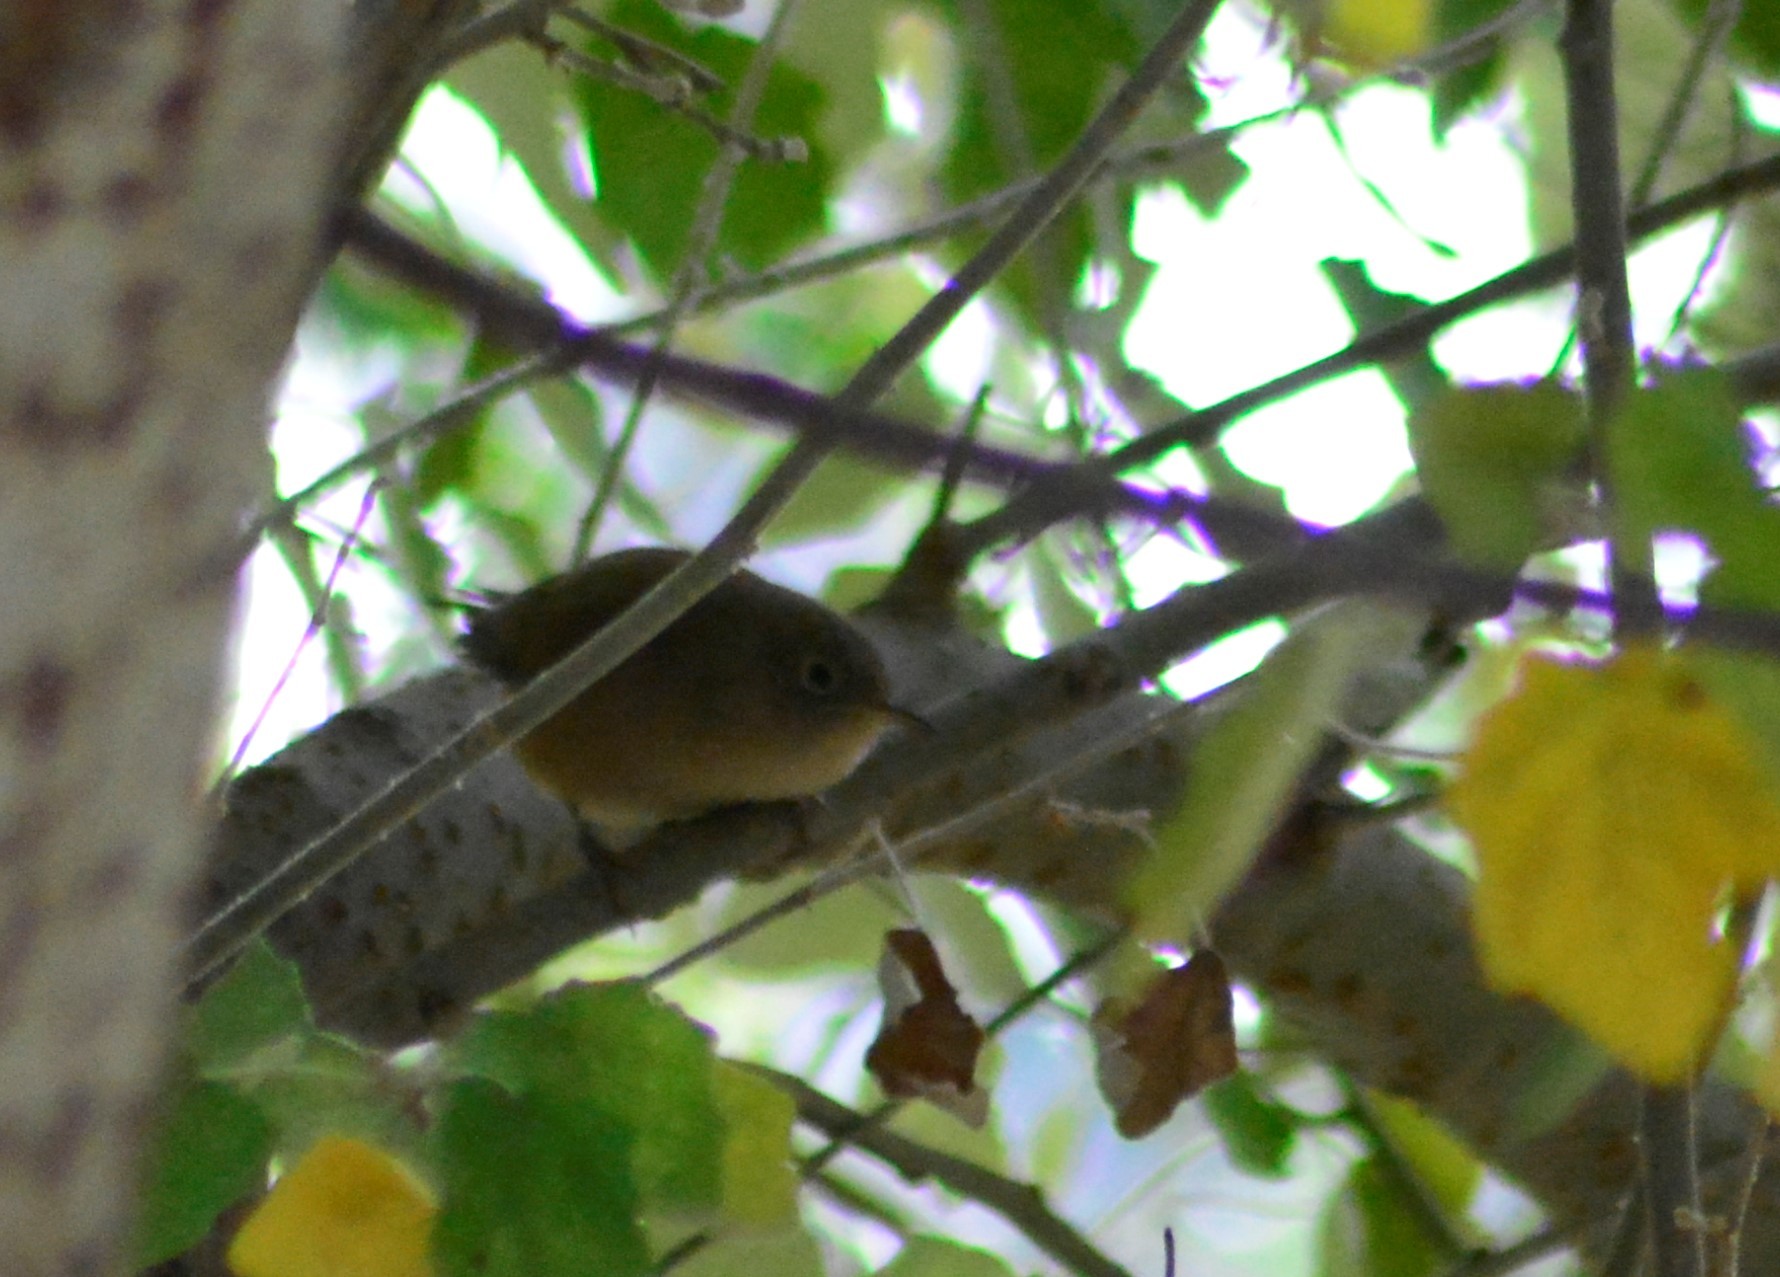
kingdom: Animalia
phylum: Chordata
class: Aves
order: Passeriformes
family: Troglodytidae
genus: Troglodytes
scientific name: Troglodytes aedon
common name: House wren
